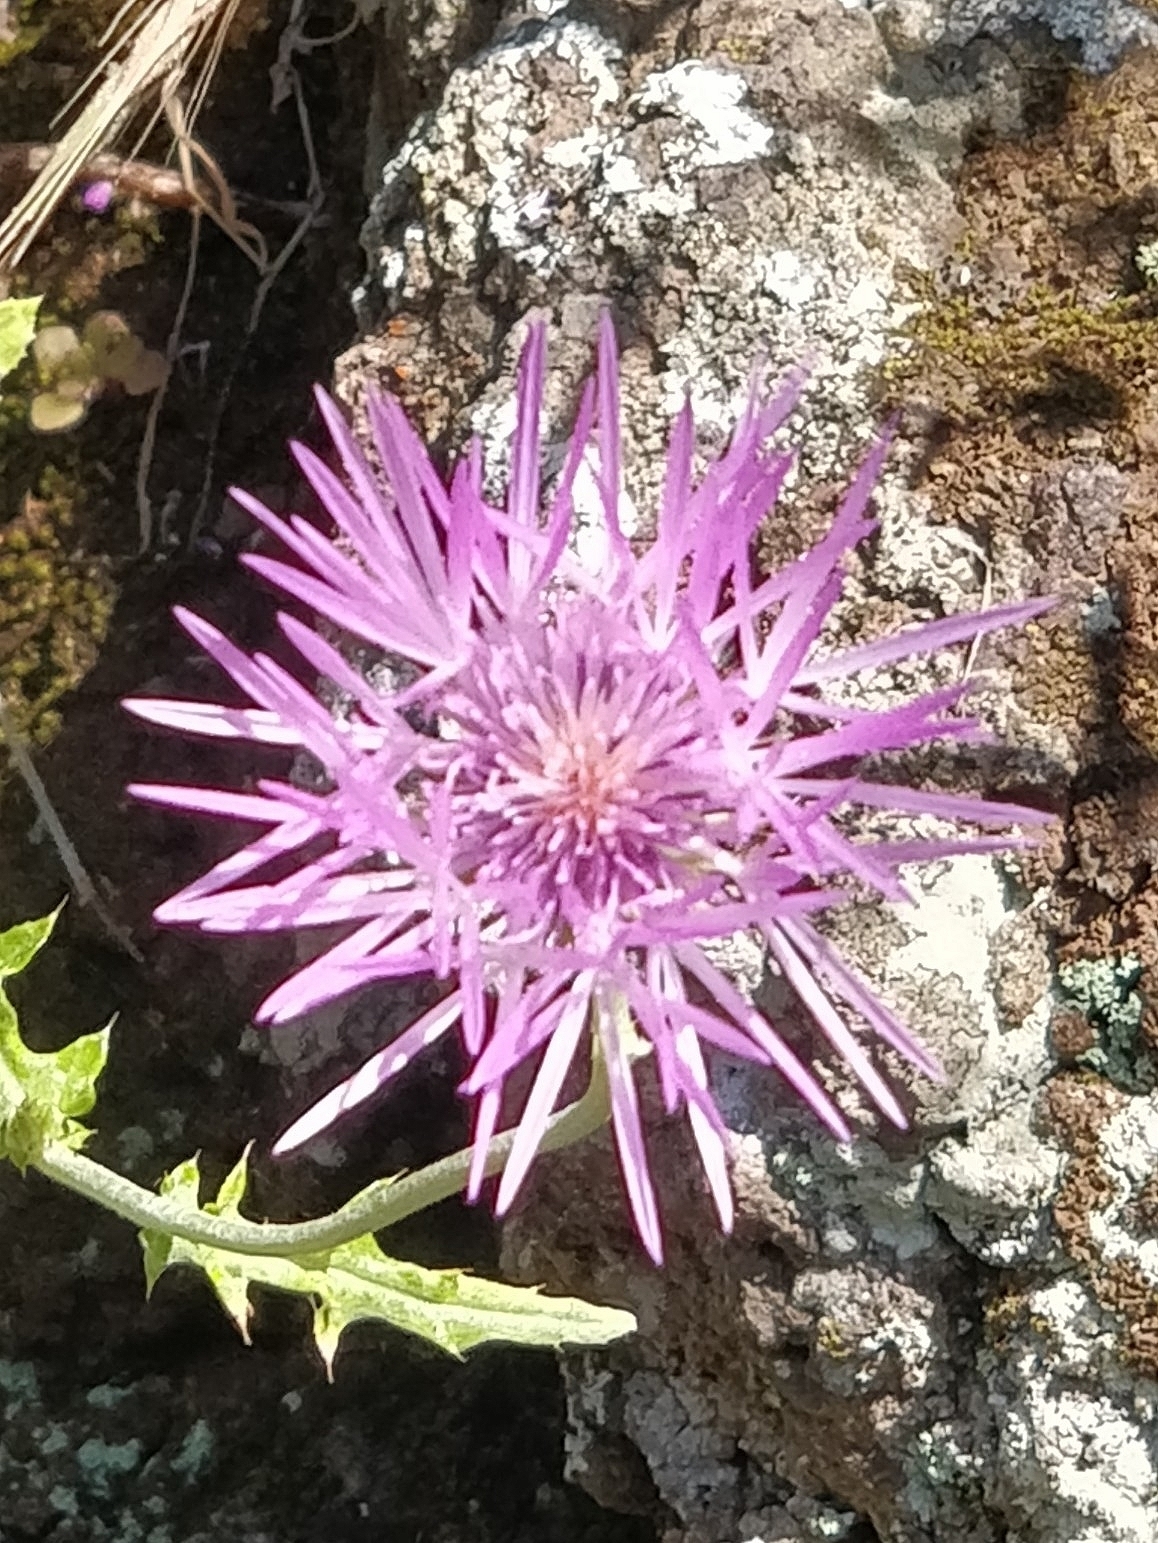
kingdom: Plantae
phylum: Tracheophyta
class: Magnoliopsida
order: Asterales
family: Asteraceae
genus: Galactites
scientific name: Galactites tomentosa
